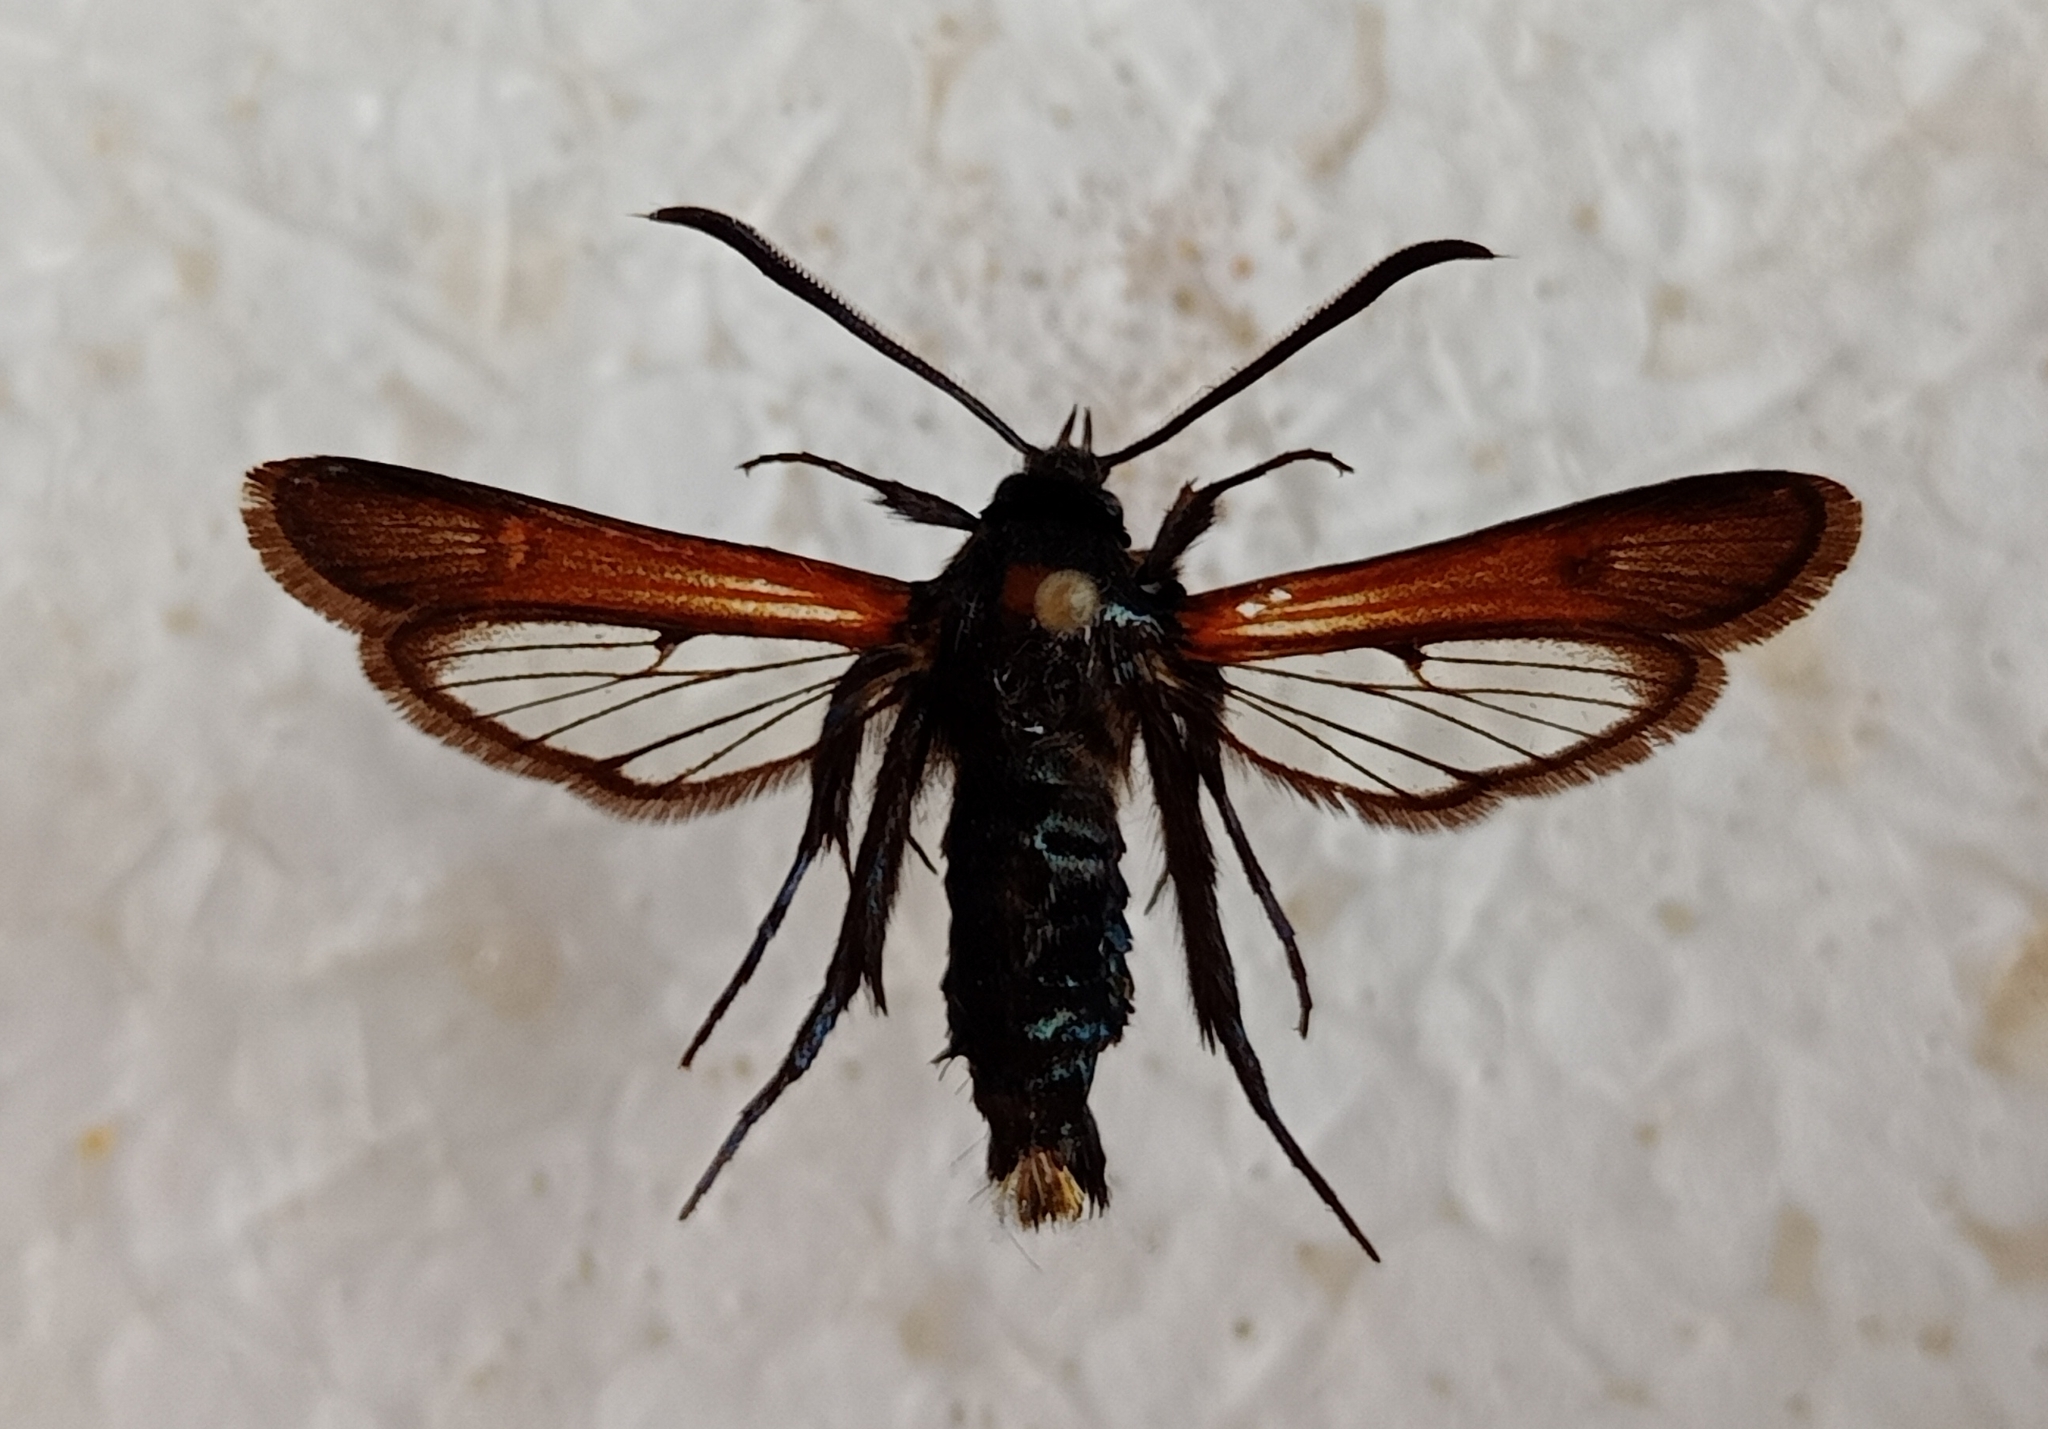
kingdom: Animalia
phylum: Arthropoda
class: Insecta
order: Lepidoptera
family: Sesiidae
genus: Bembecia
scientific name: Bembecia sanguinolenta
